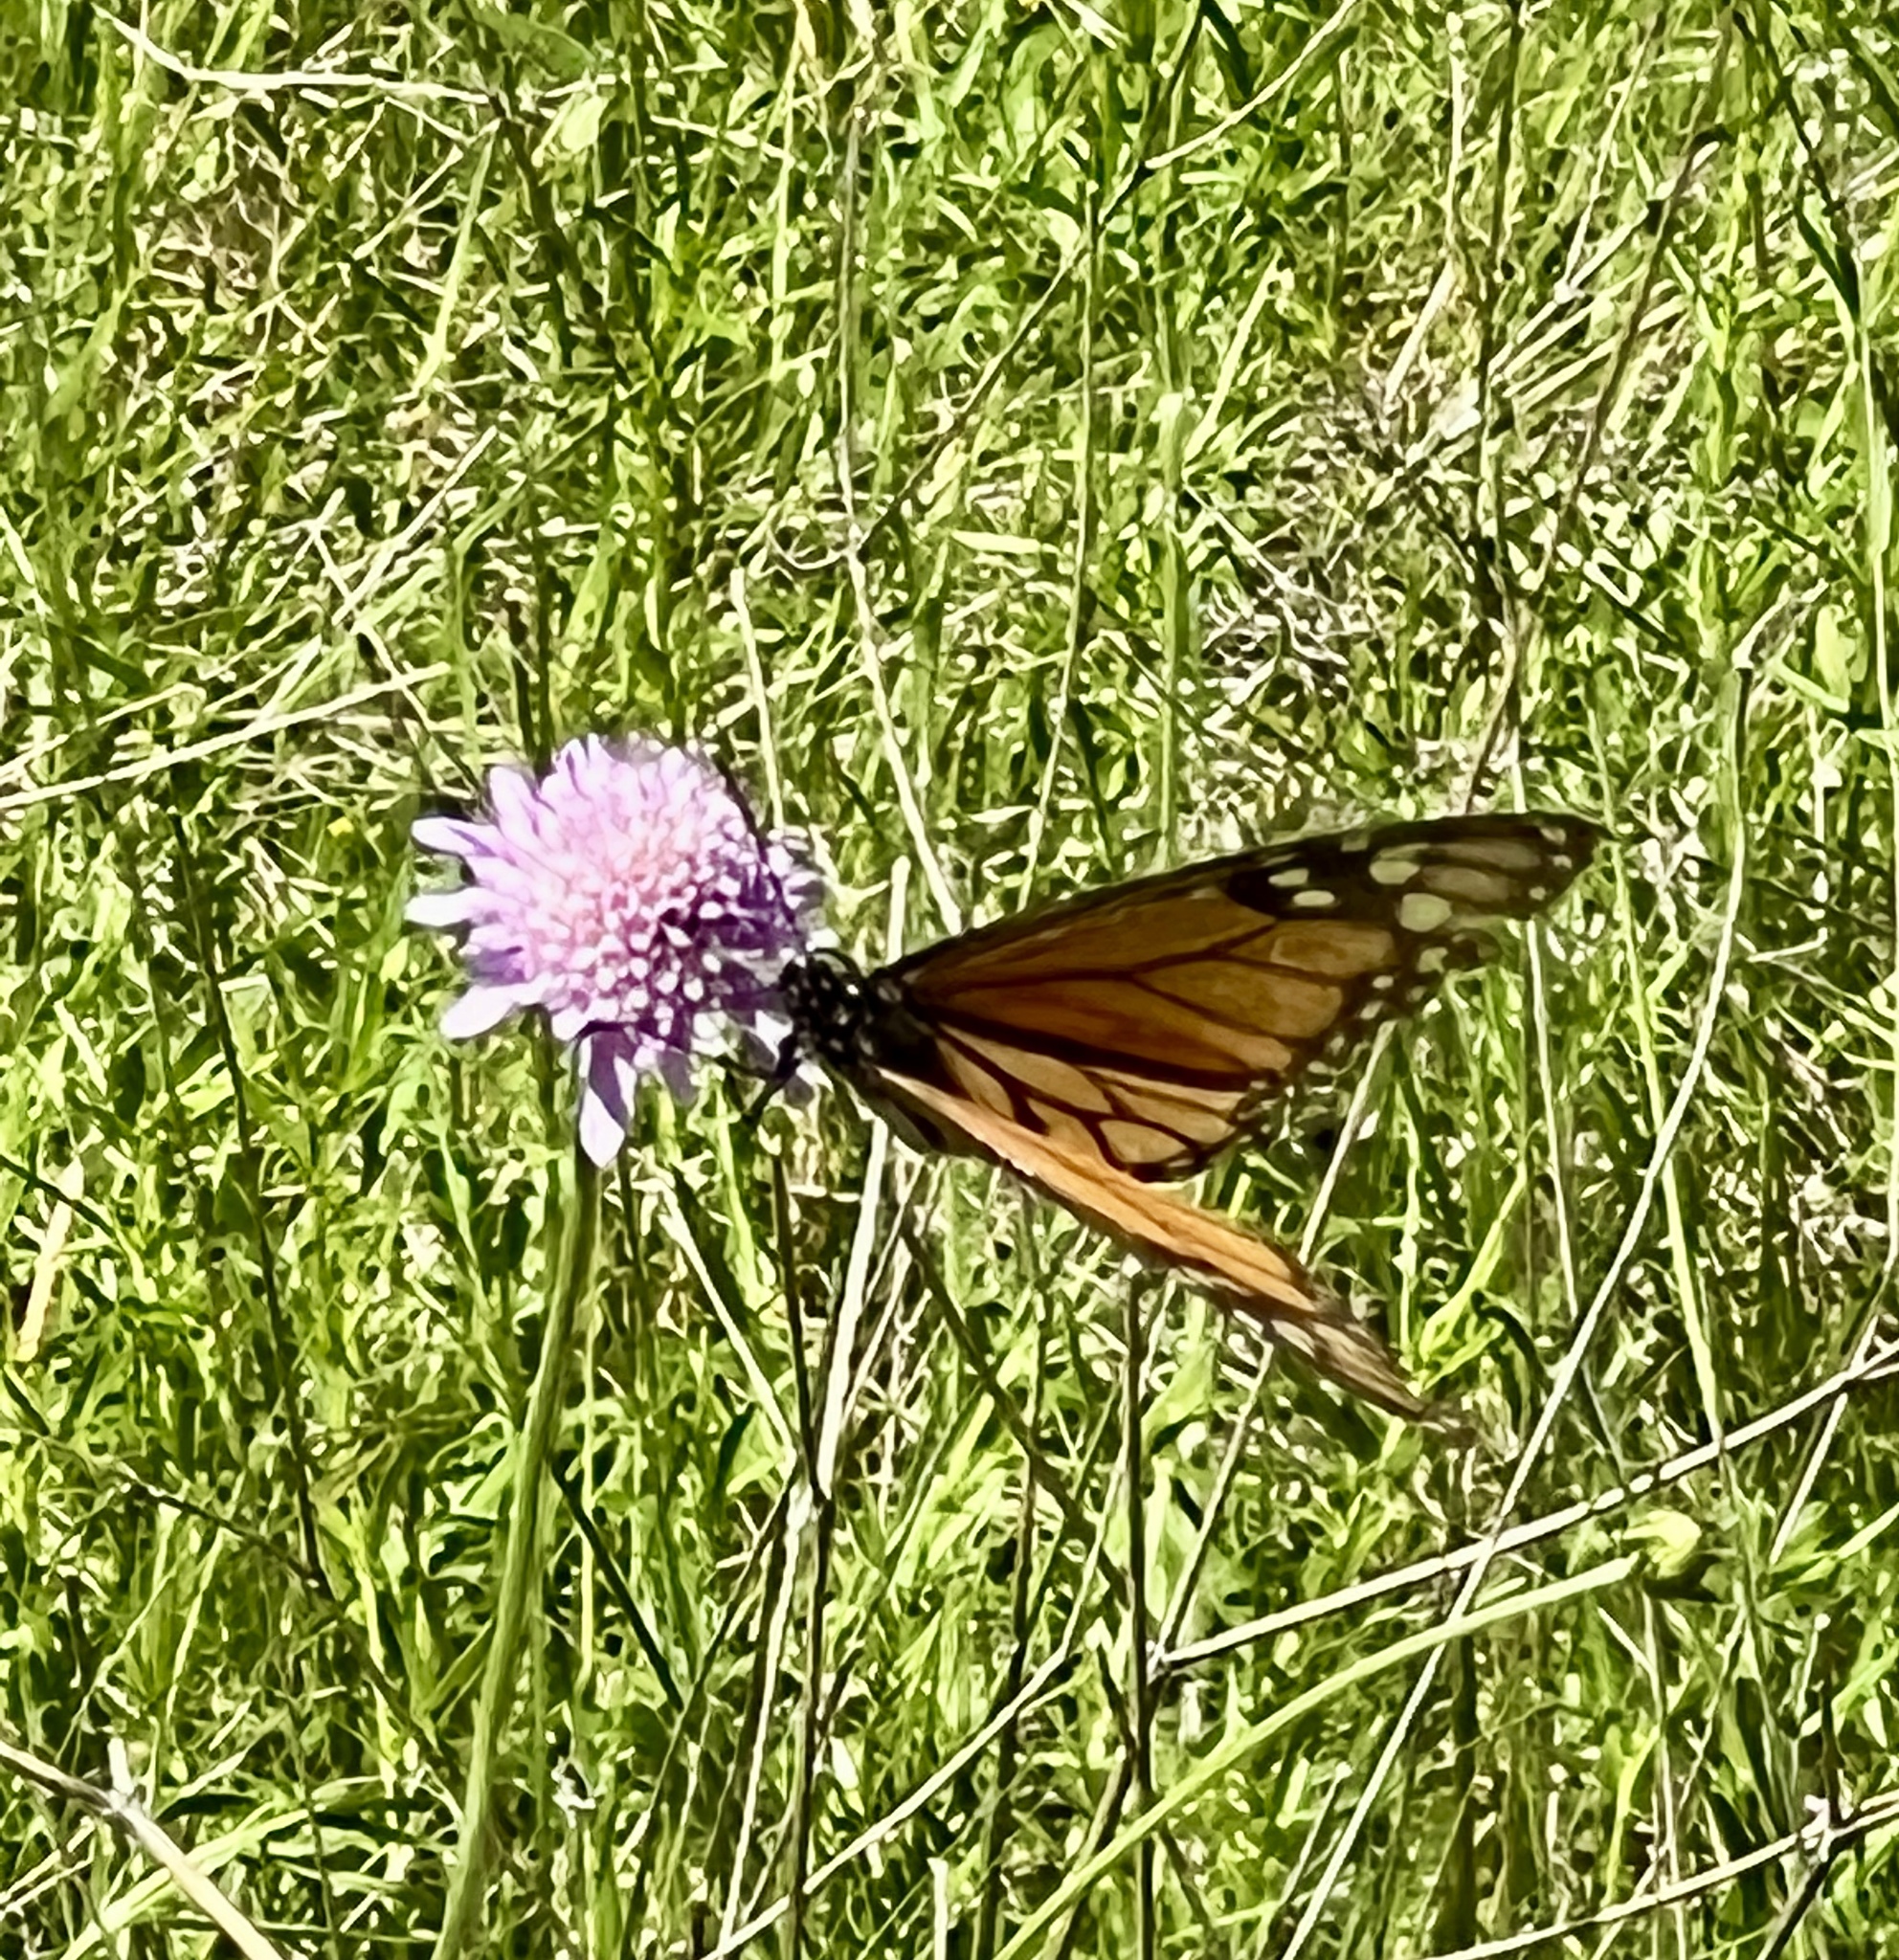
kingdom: Animalia
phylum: Arthropoda
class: Insecta
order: Lepidoptera
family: Nymphalidae
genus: Danaus
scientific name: Danaus plexippus
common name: Monarch
